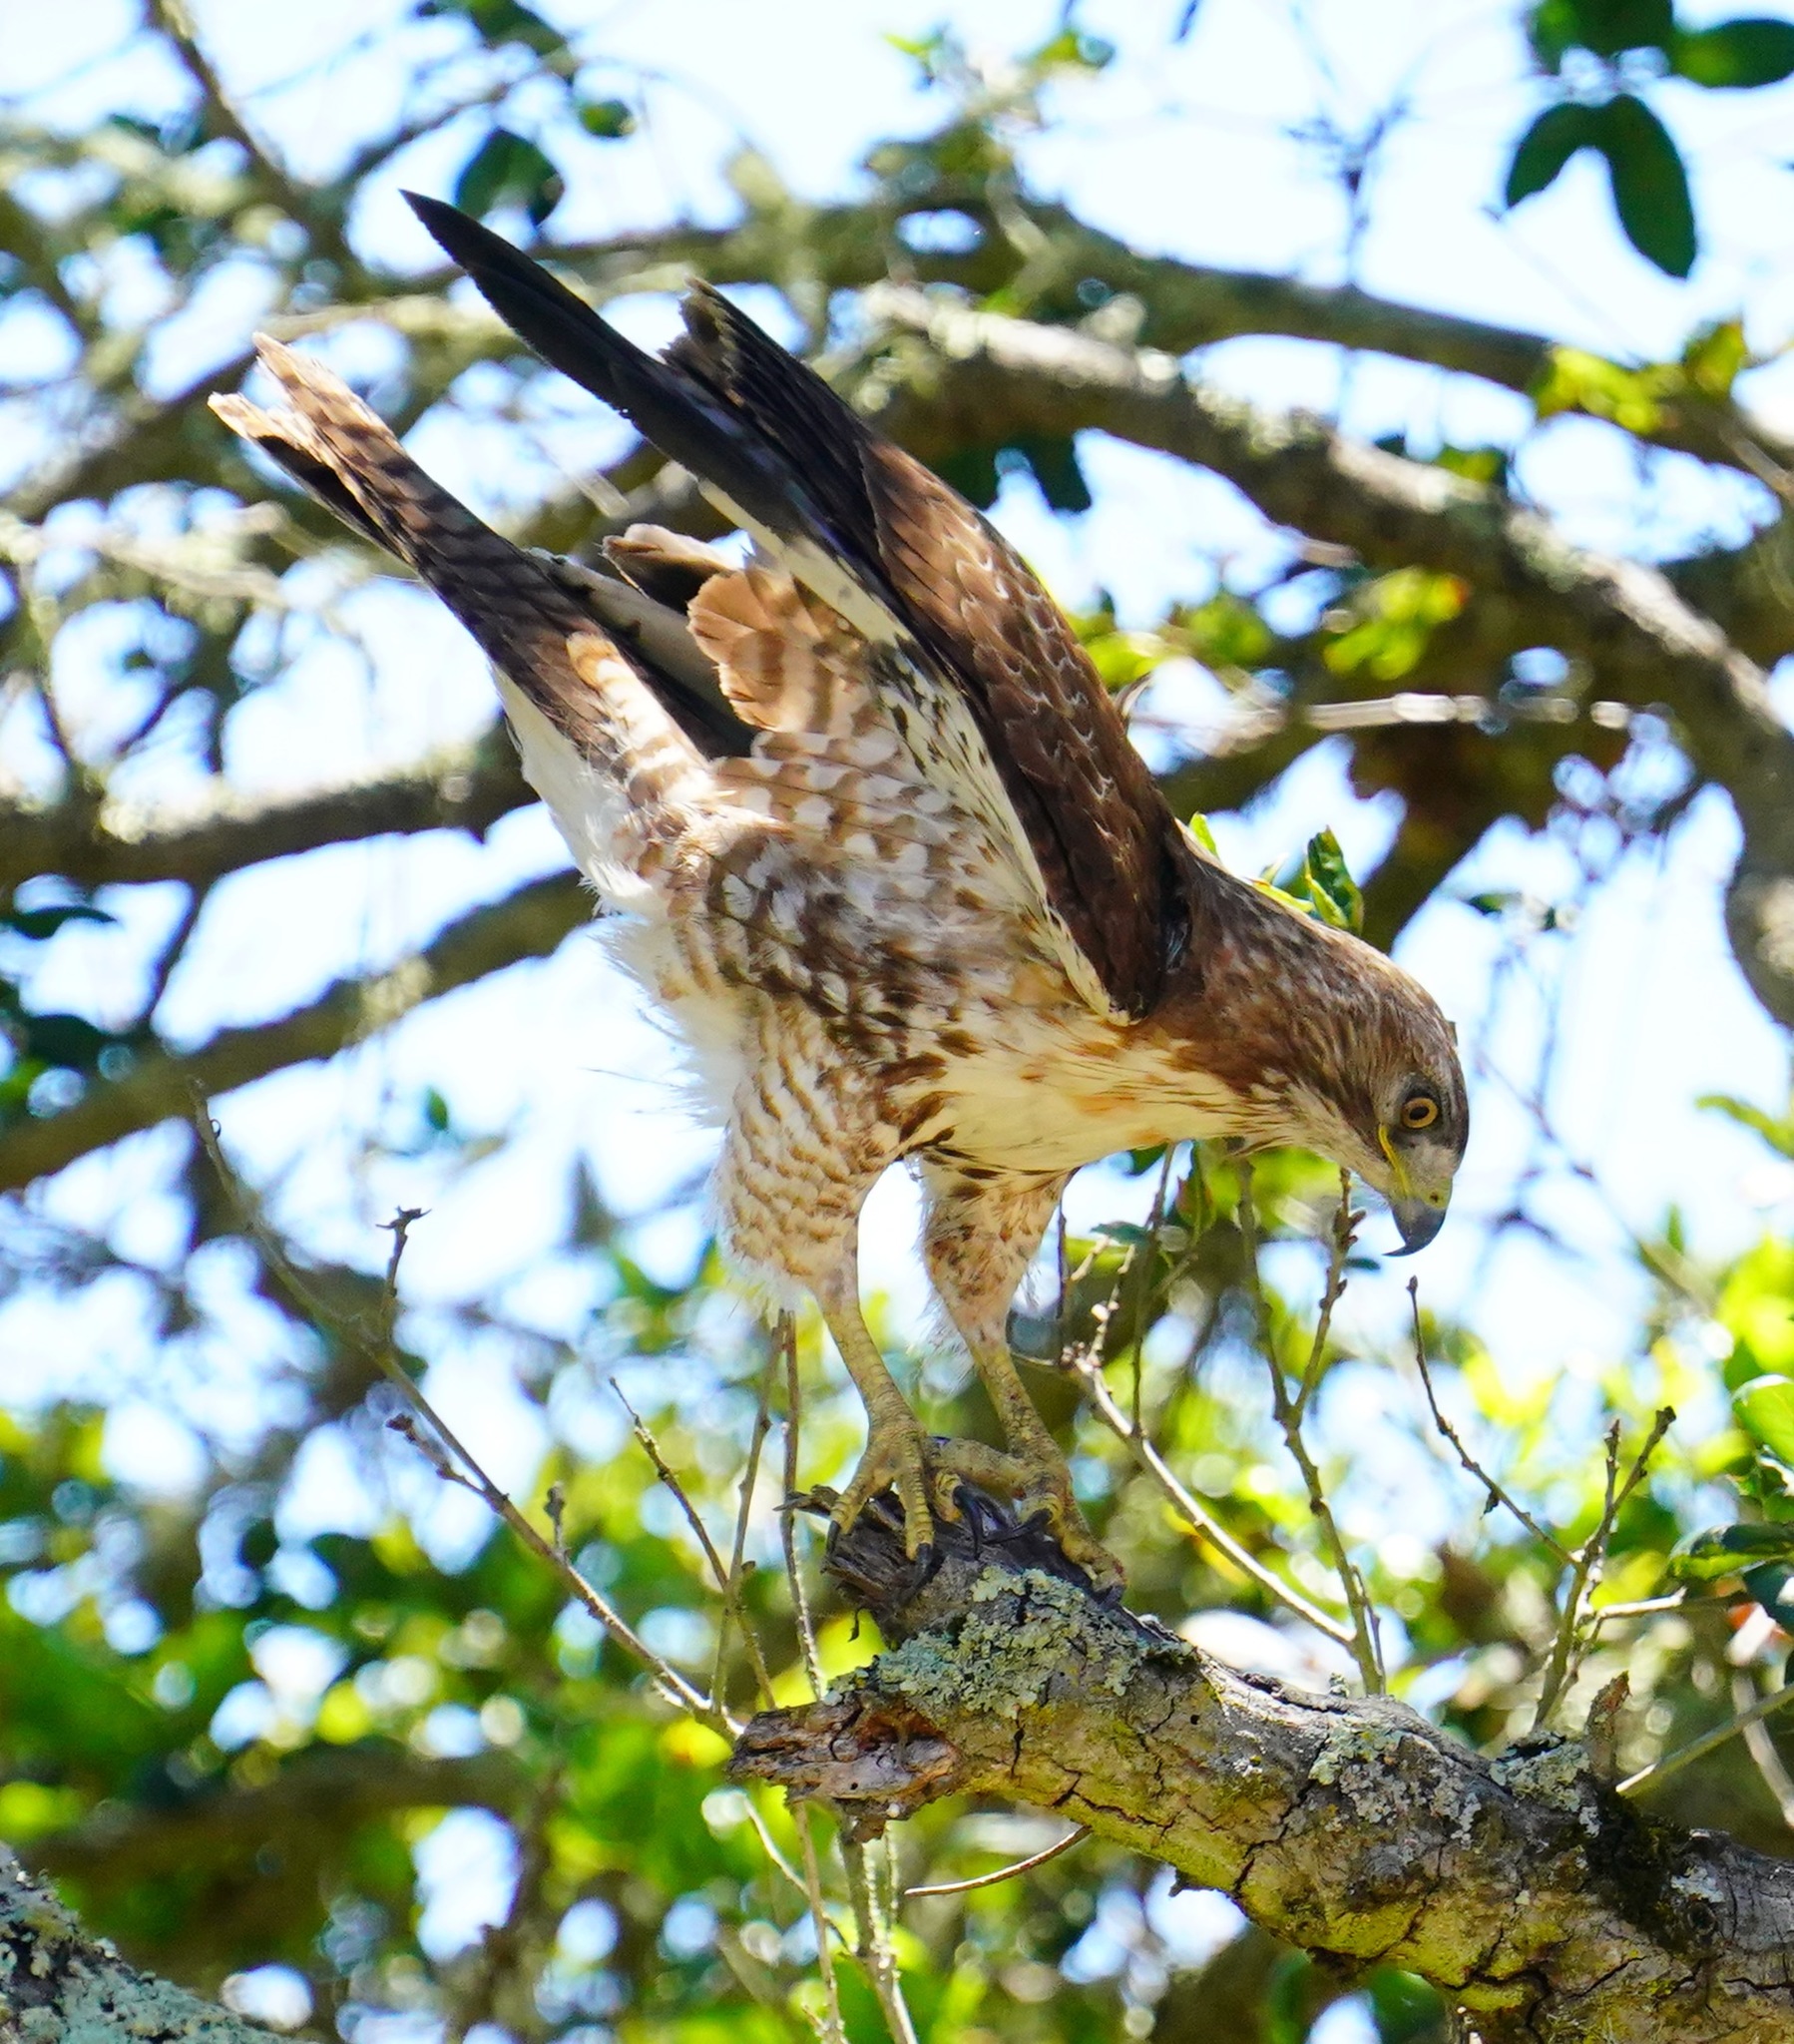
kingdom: Animalia
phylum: Chordata
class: Aves
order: Accipitriformes
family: Accipitridae
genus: Buteo
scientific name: Buteo jamaicensis
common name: Red-tailed hawk
